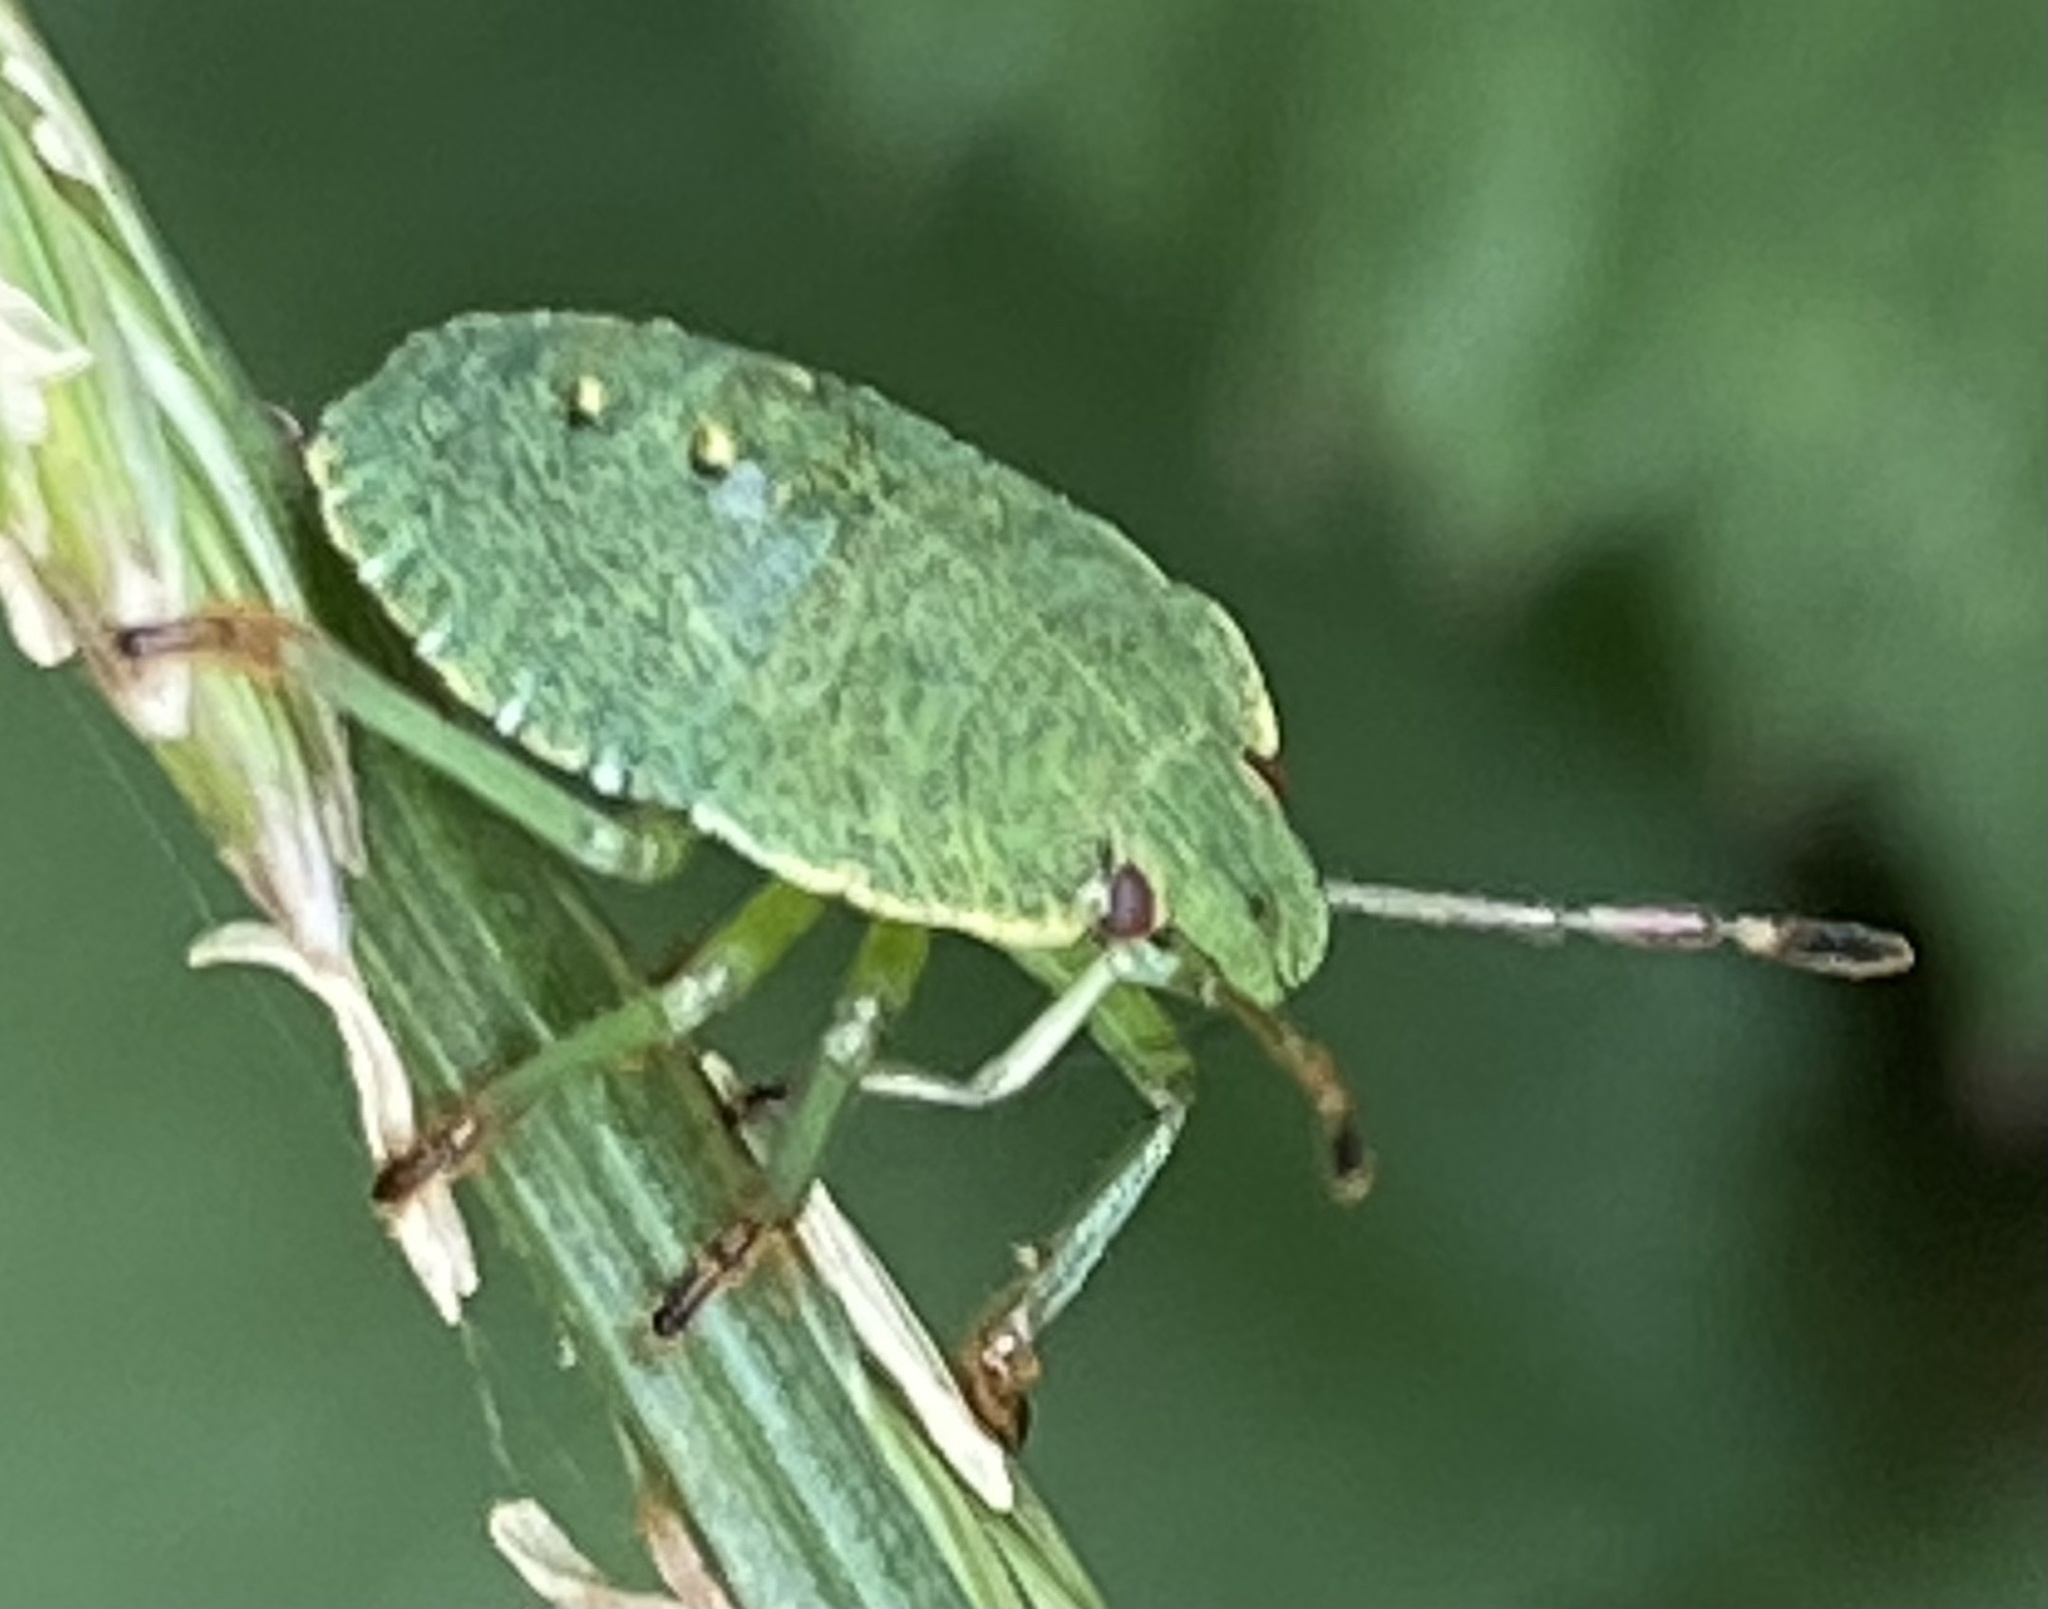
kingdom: Animalia
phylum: Arthropoda
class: Insecta
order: Hemiptera
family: Pentatomidae
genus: Palomena
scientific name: Palomena prasina
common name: Green shieldbug
